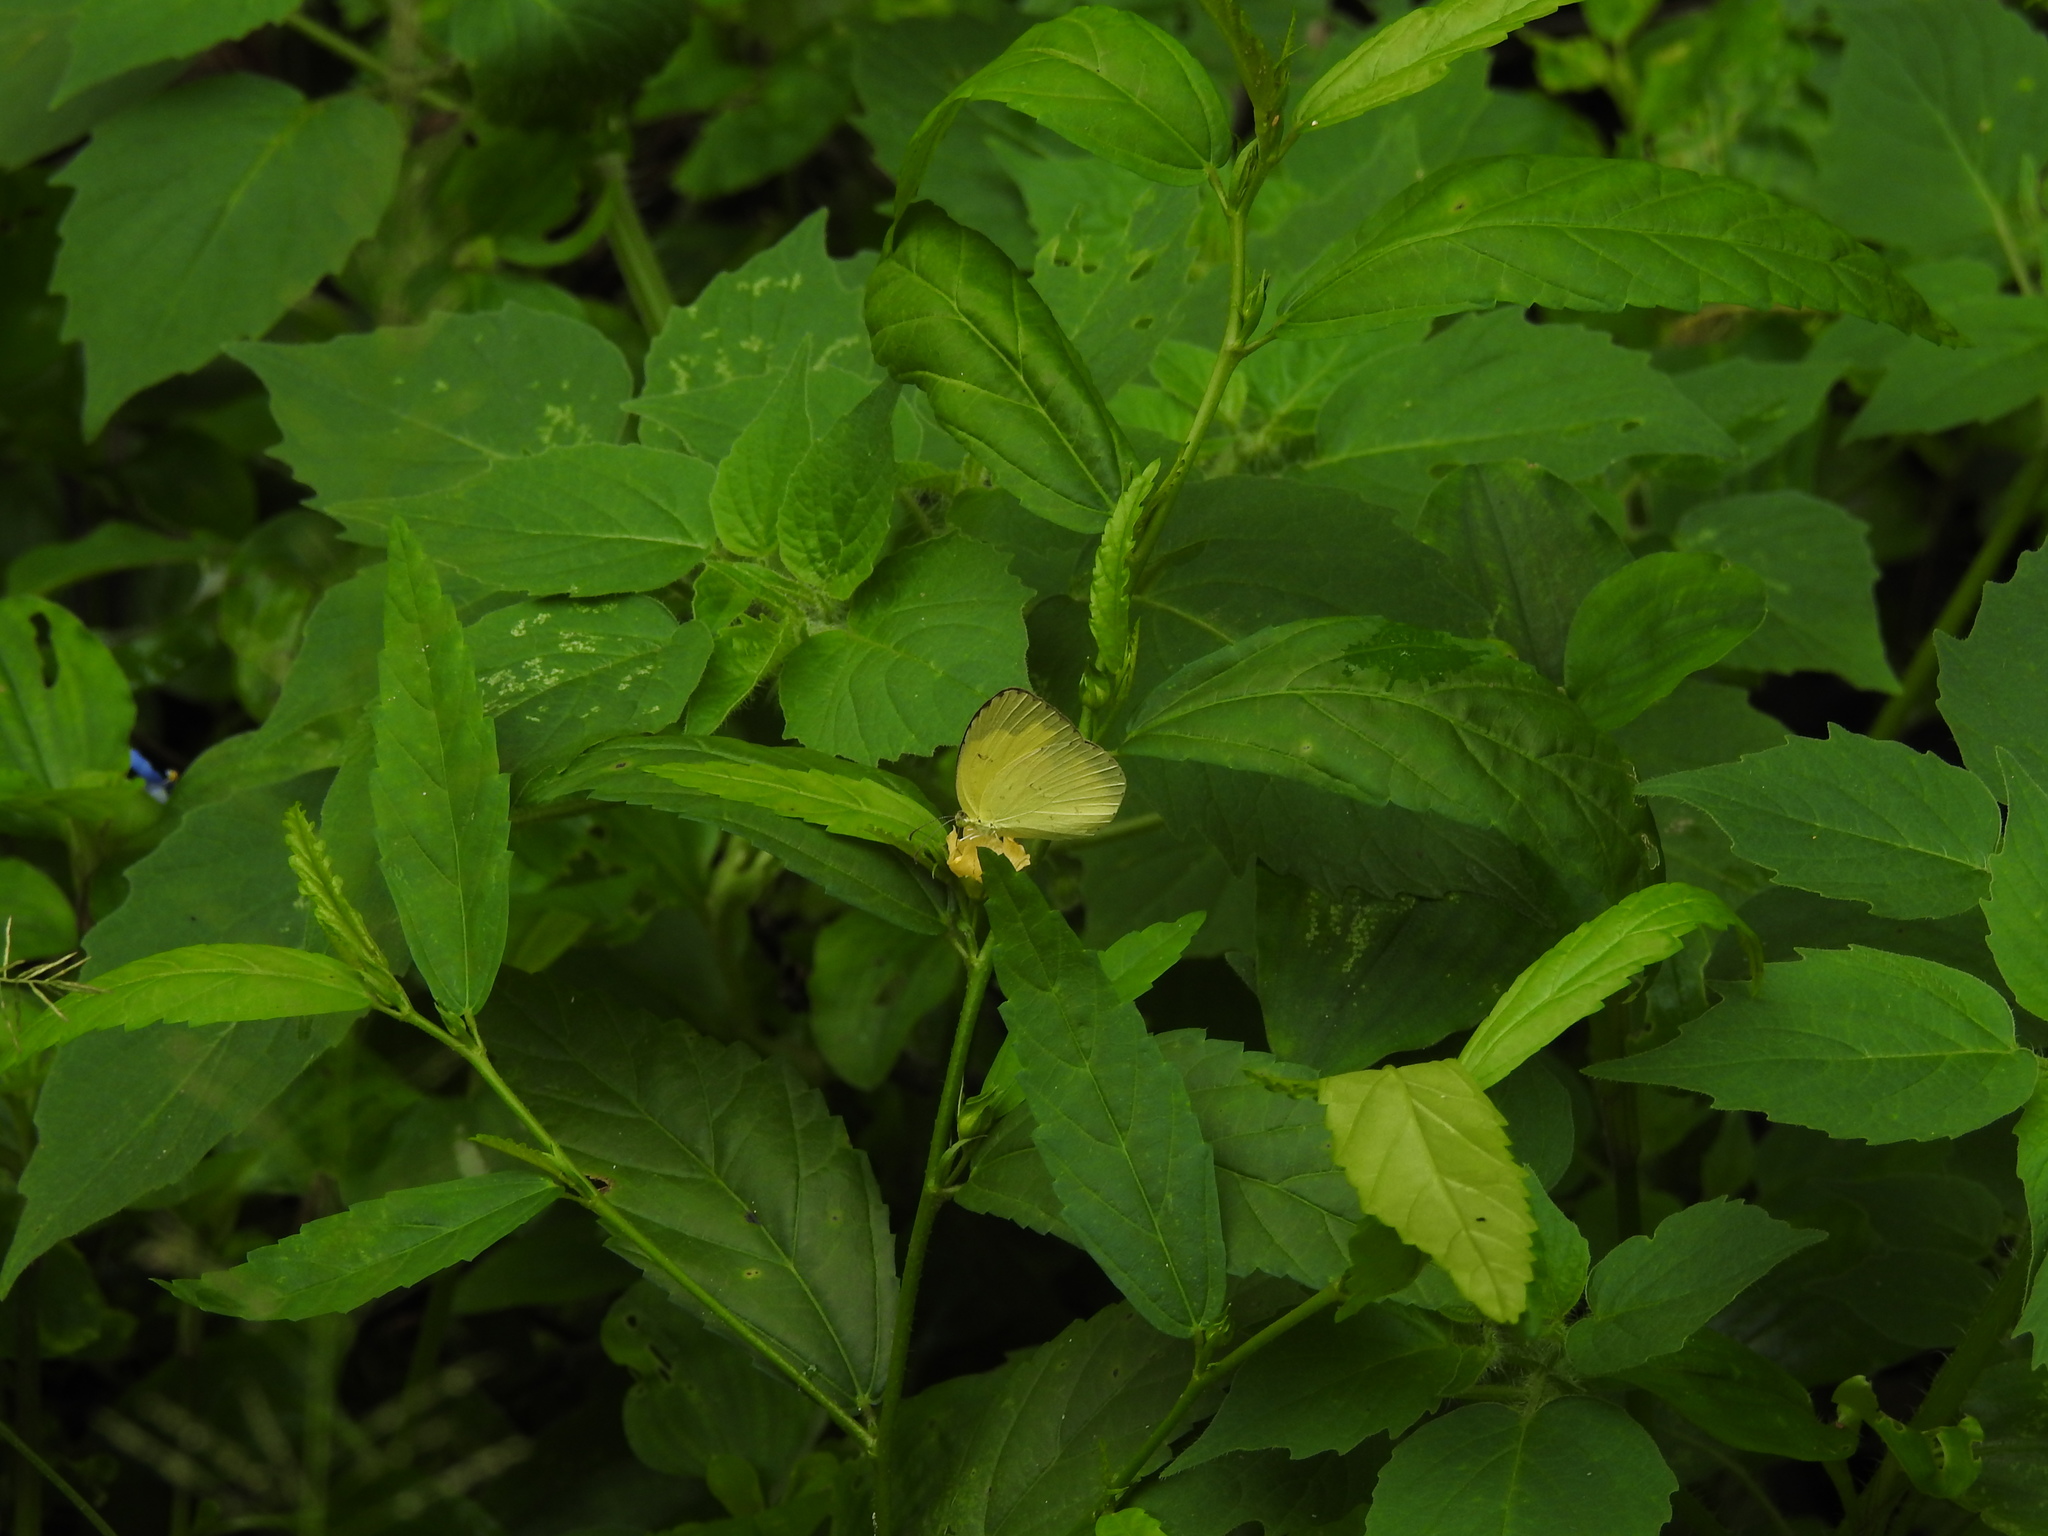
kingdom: Animalia
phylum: Arthropoda
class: Insecta
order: Lepidoptera
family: Pieridae
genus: Eurema
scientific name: Eurema hecabe
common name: Pale grass yellow
